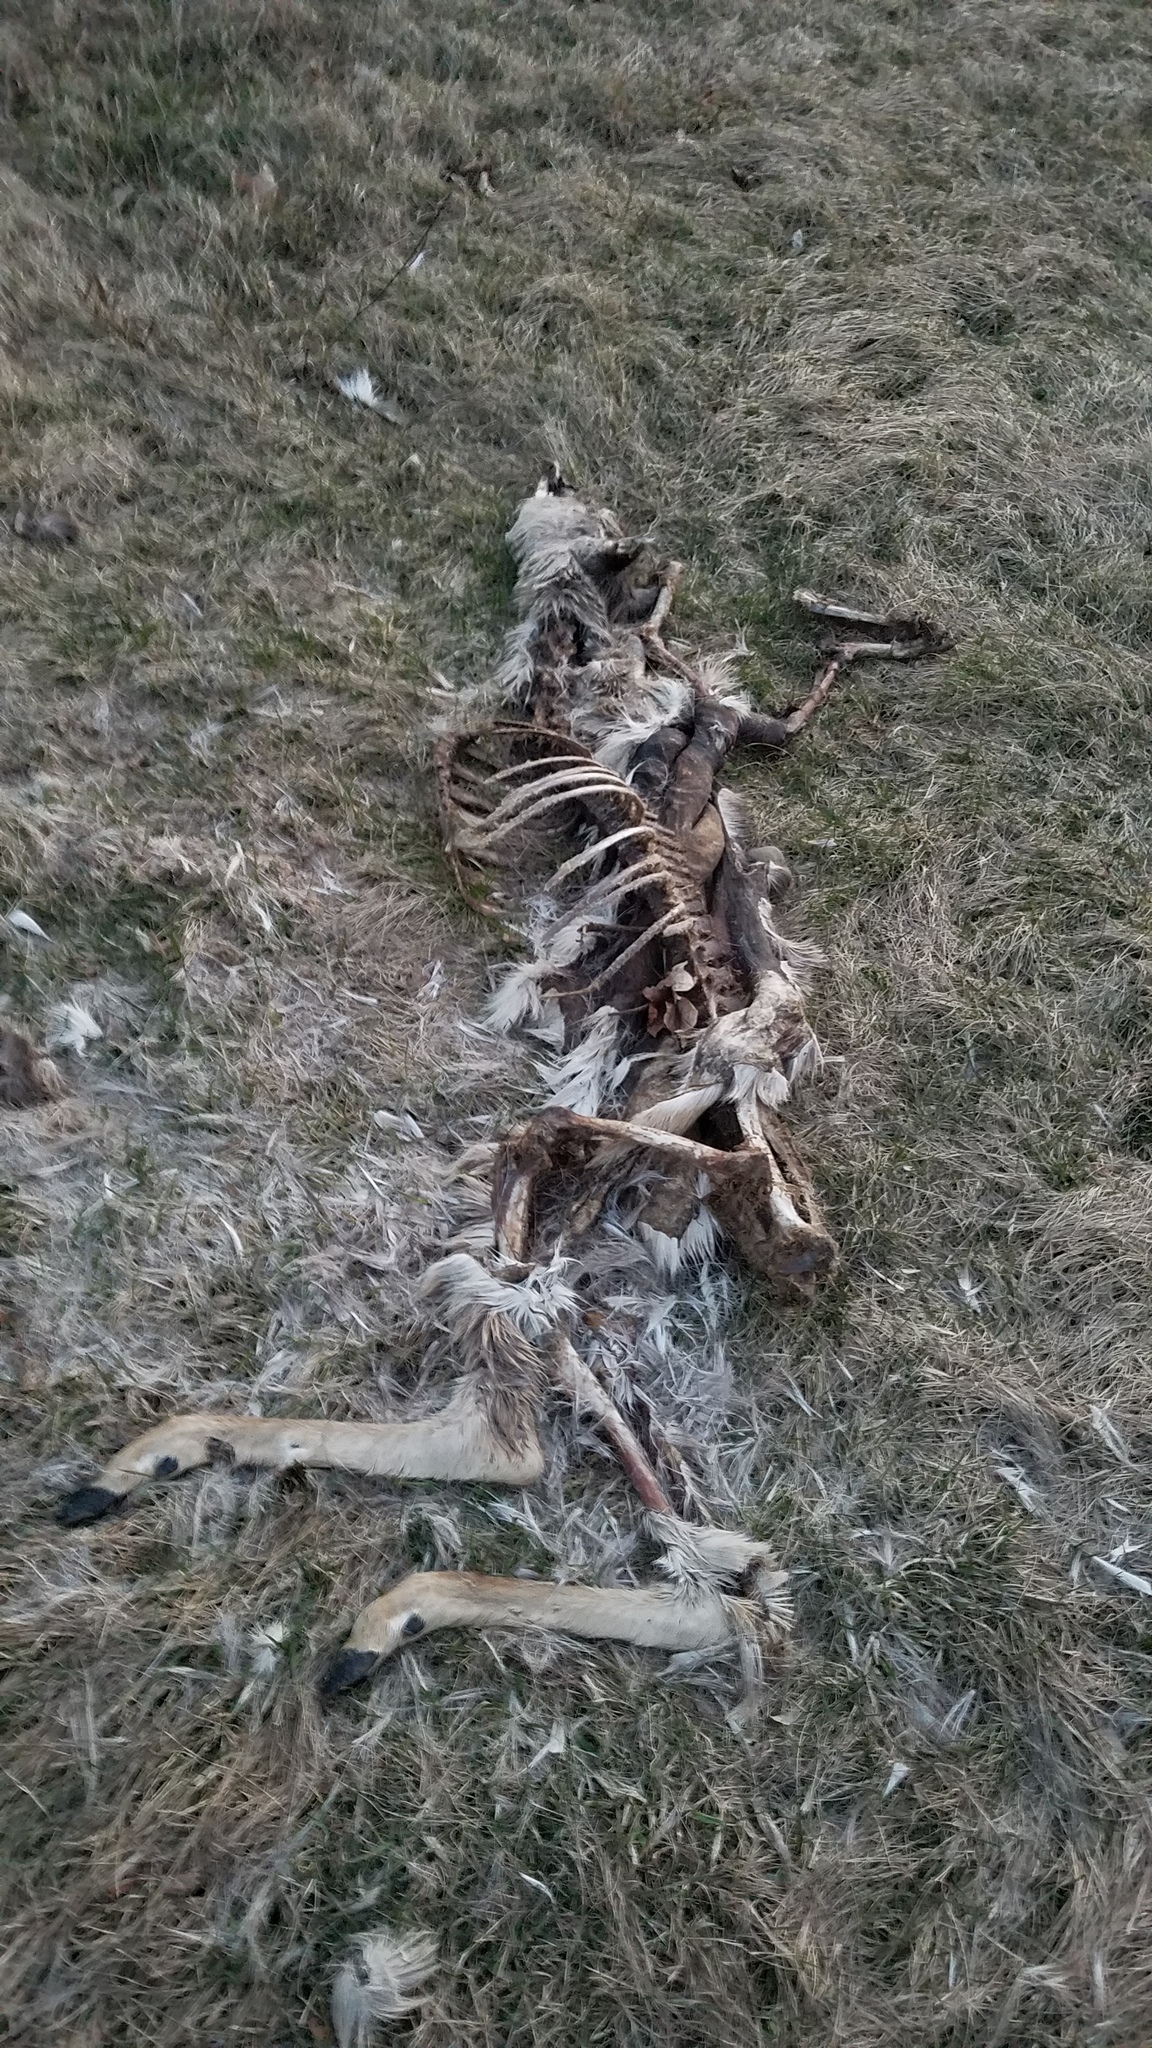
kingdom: Animalia
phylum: Chordata
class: Mammalia
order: Artiodactyla
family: Cervidae
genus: Odocoileus
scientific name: Odocoileus virginianus
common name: White-tailed deer
